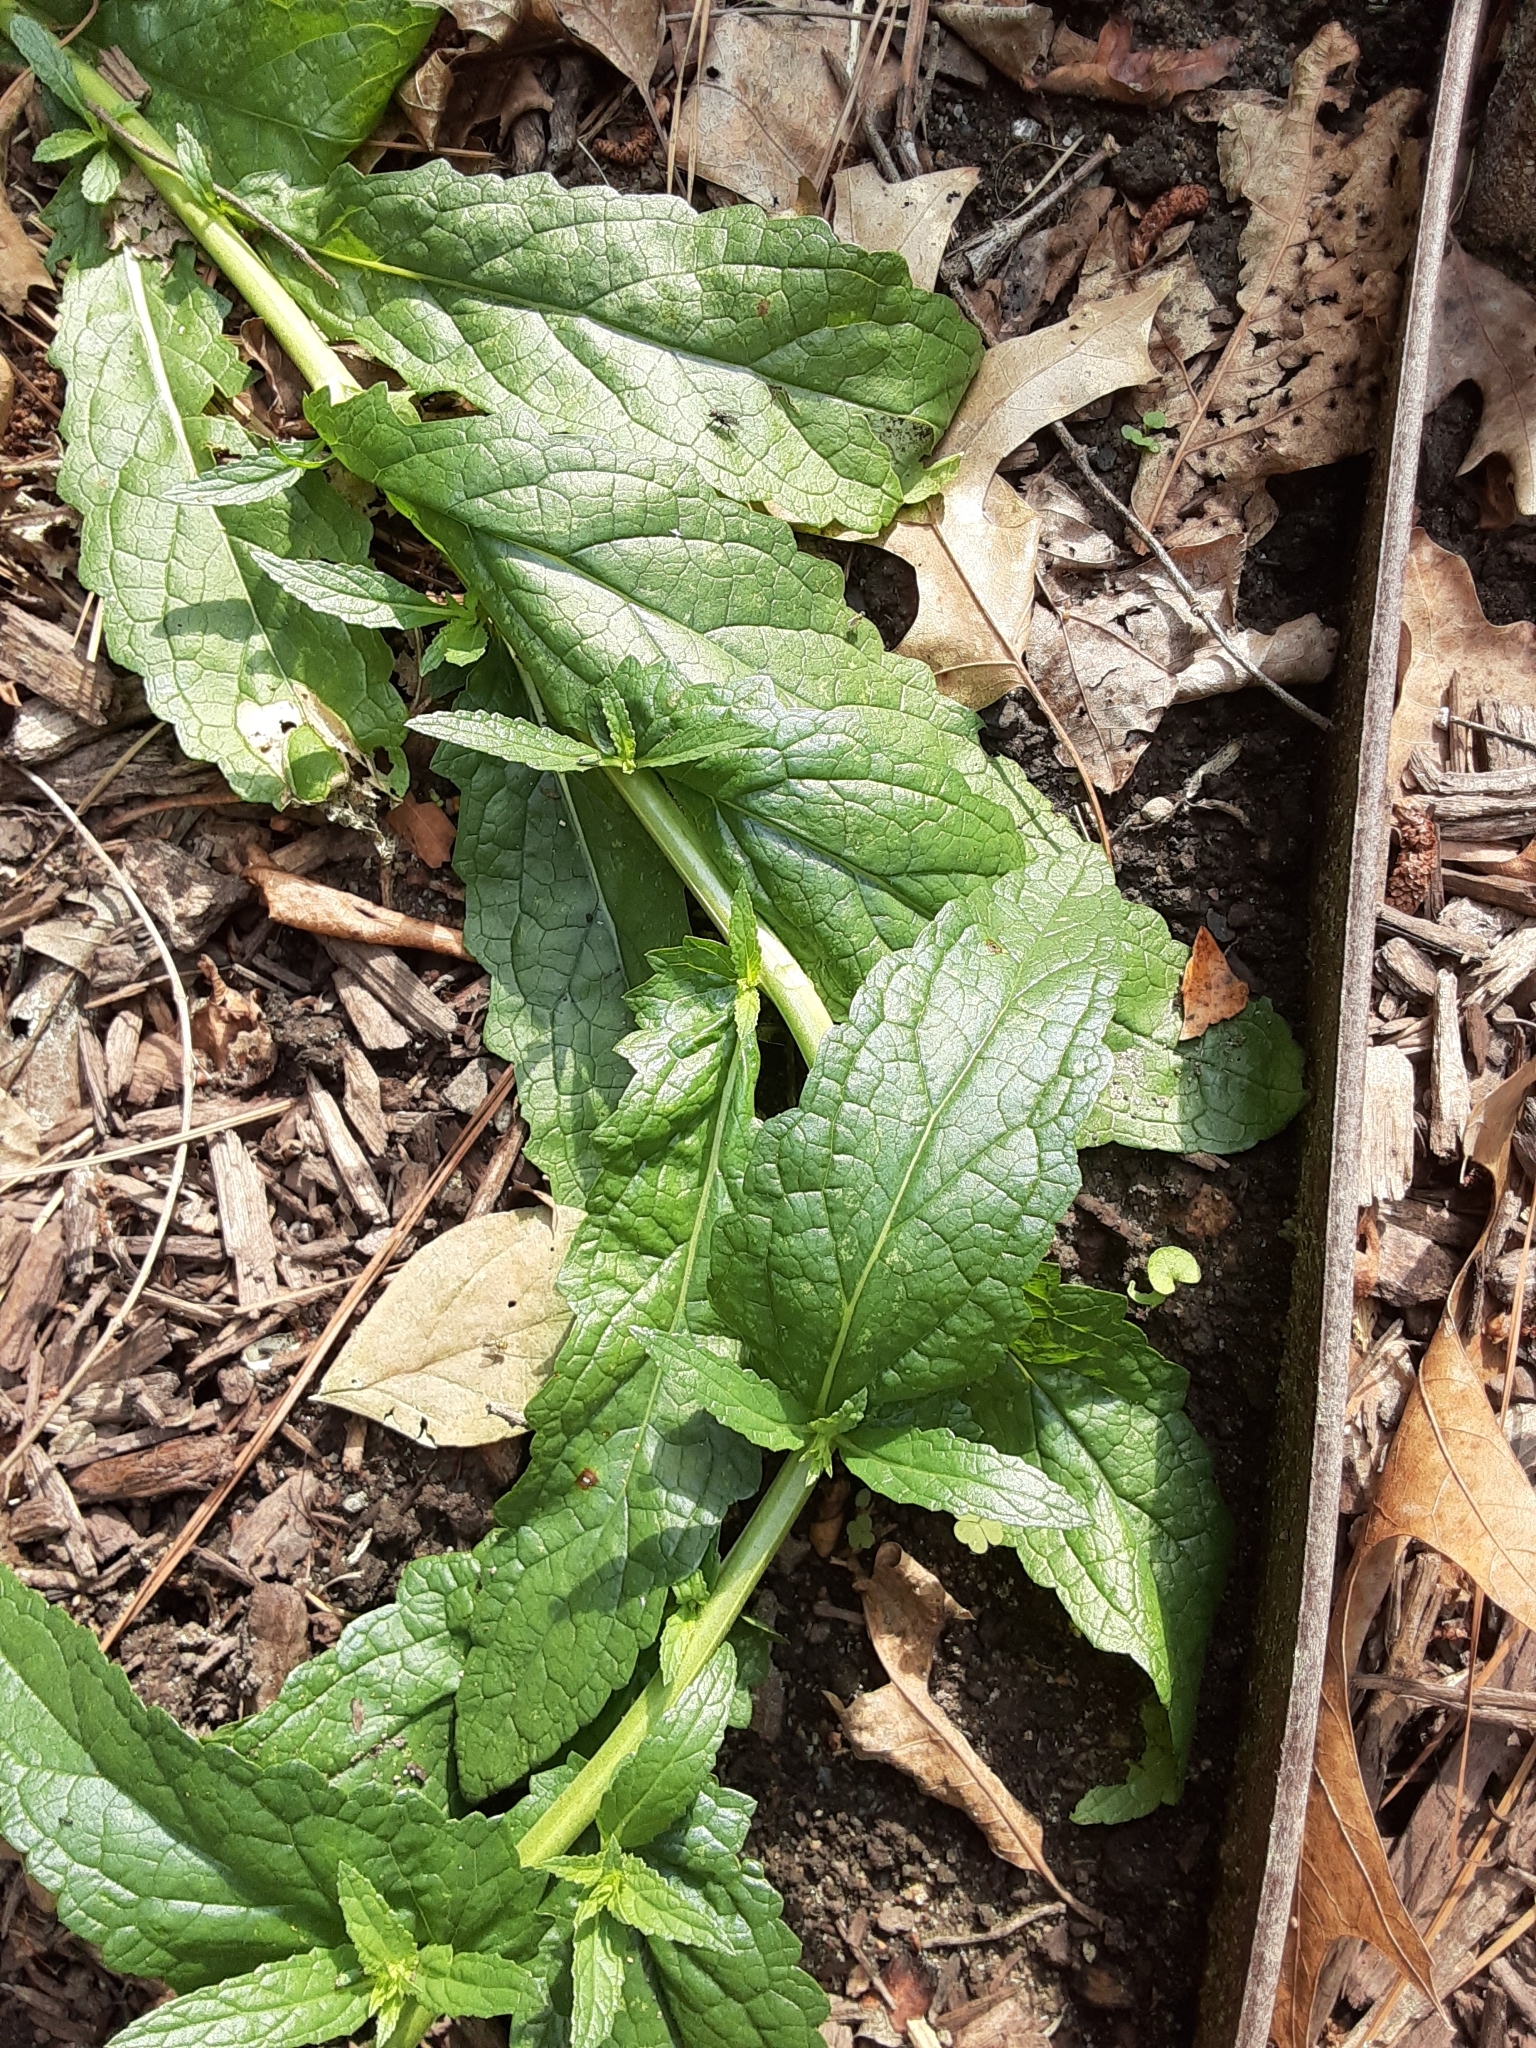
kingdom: Plantae
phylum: Tracheophyta
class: Magnoliopsida
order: Lamiales
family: Scrophulariaceae
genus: Verbascum
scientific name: Verbascum blattaria
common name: Moth mullein
